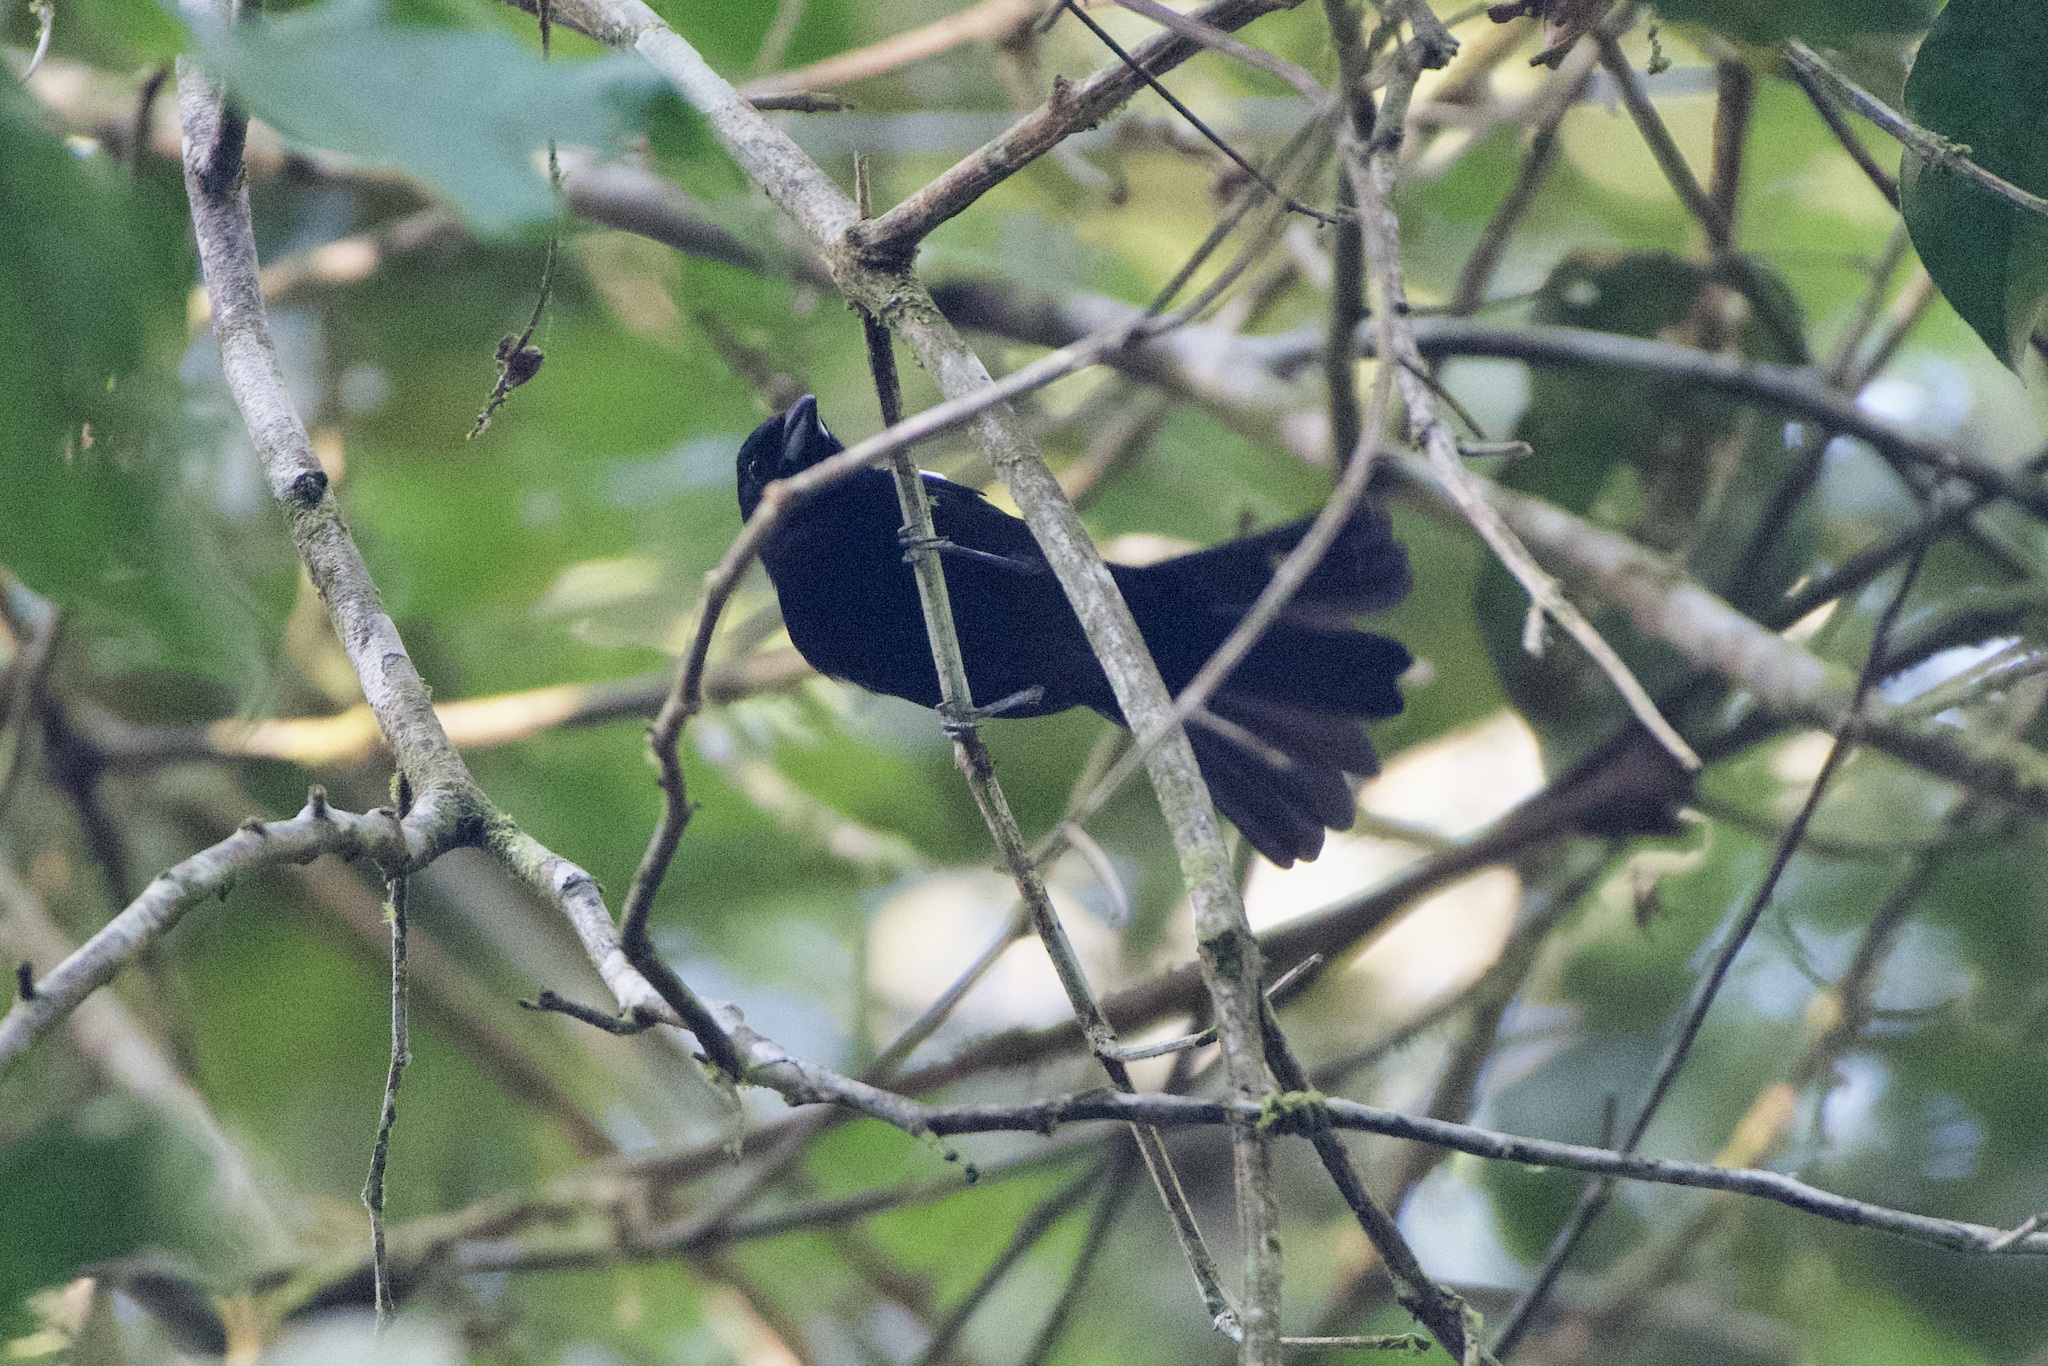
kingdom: Animalia
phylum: Chordata
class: Aves
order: Passeriformes
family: Thraupidae
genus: Loriotus
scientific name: Loriotus luctuosus
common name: White-shouldered tanager
